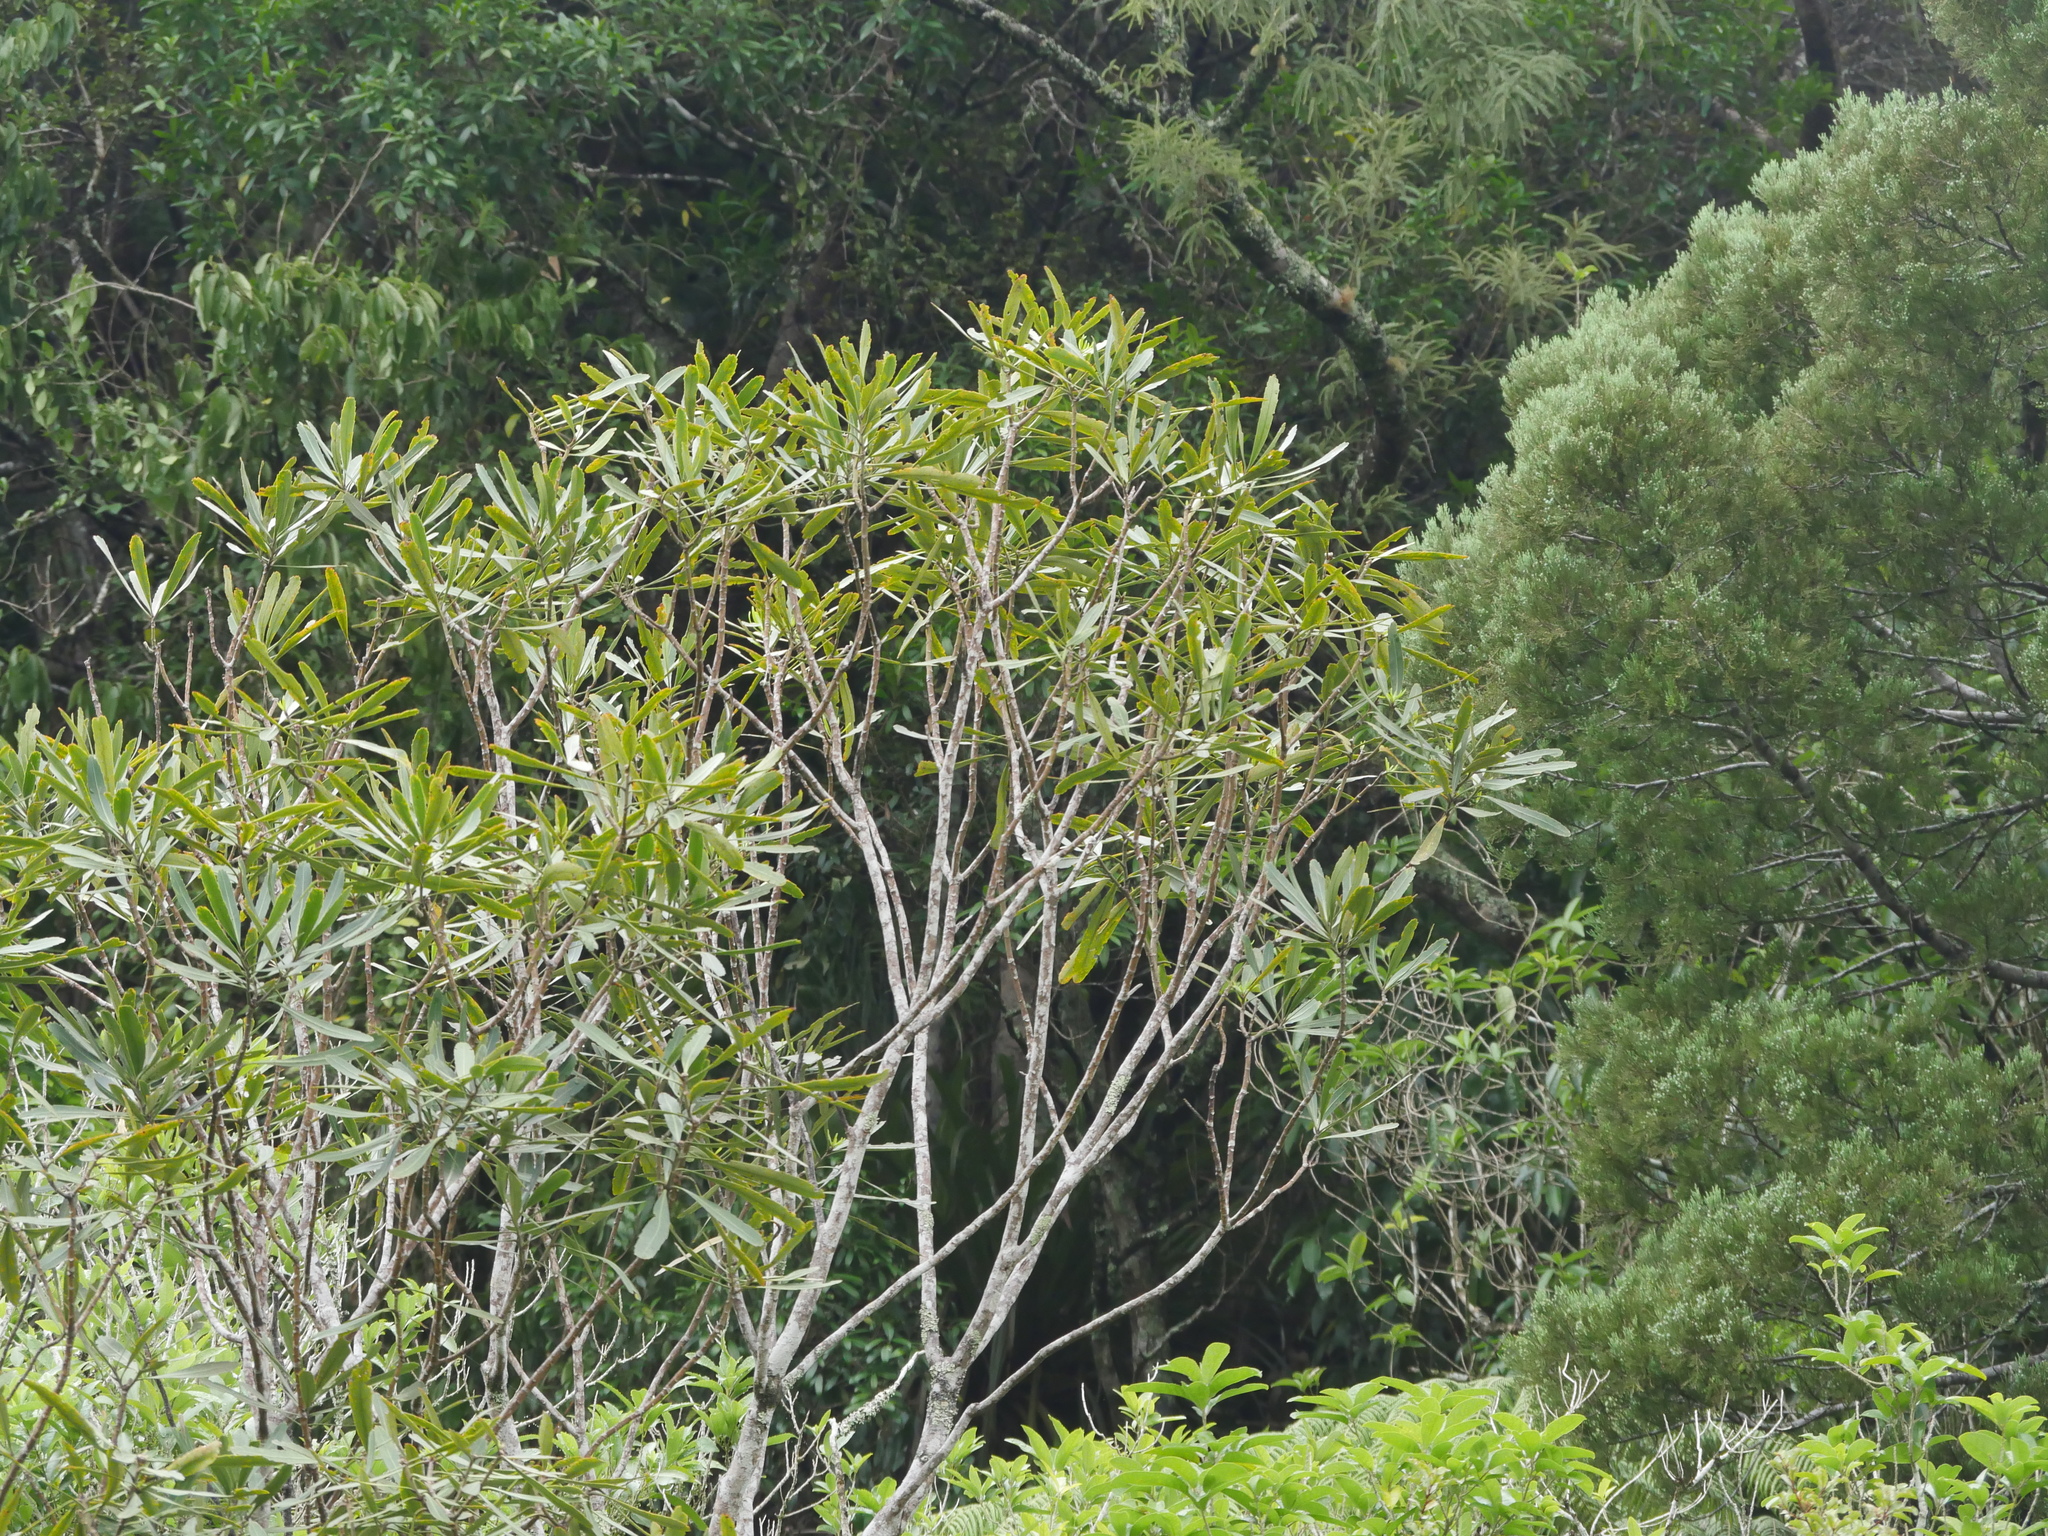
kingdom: Plantae
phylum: Tracheophyta
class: Magnoliopsida
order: Apiales
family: Araliaceae
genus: Pseudopanax
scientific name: Pseudopanax crassifolius
